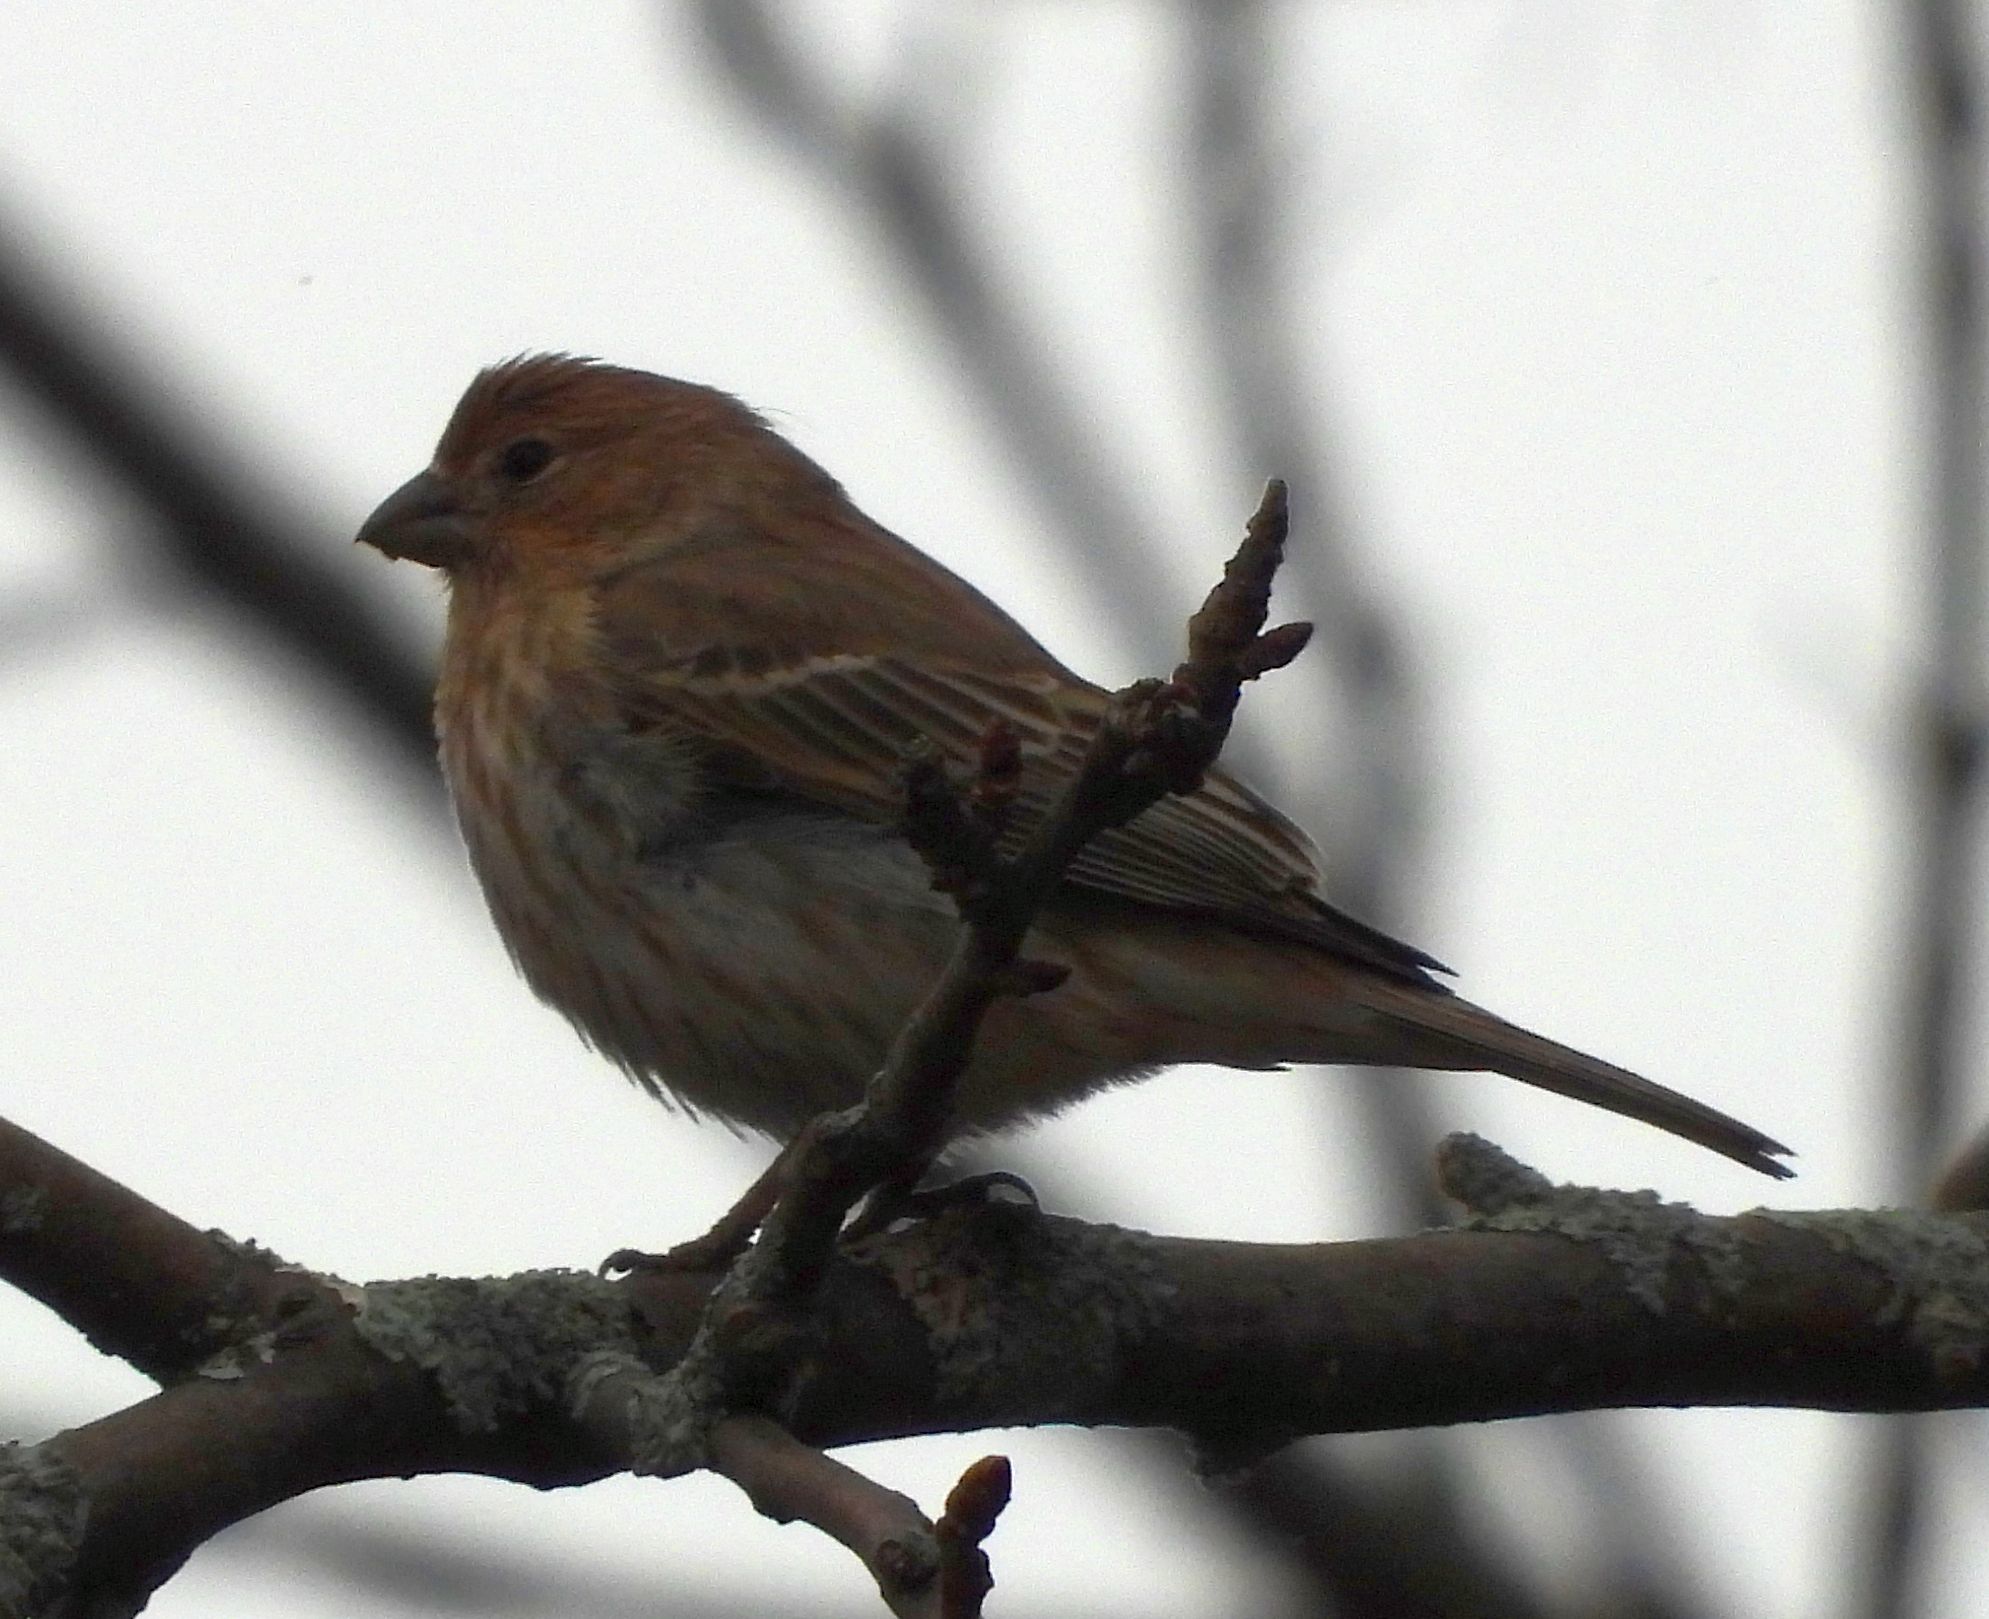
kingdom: Animalia
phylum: Chordata
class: Aves
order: Passeriformes
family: Fringillidae
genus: Haemorhous
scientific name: Haemorhous mexicanus
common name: House finch
